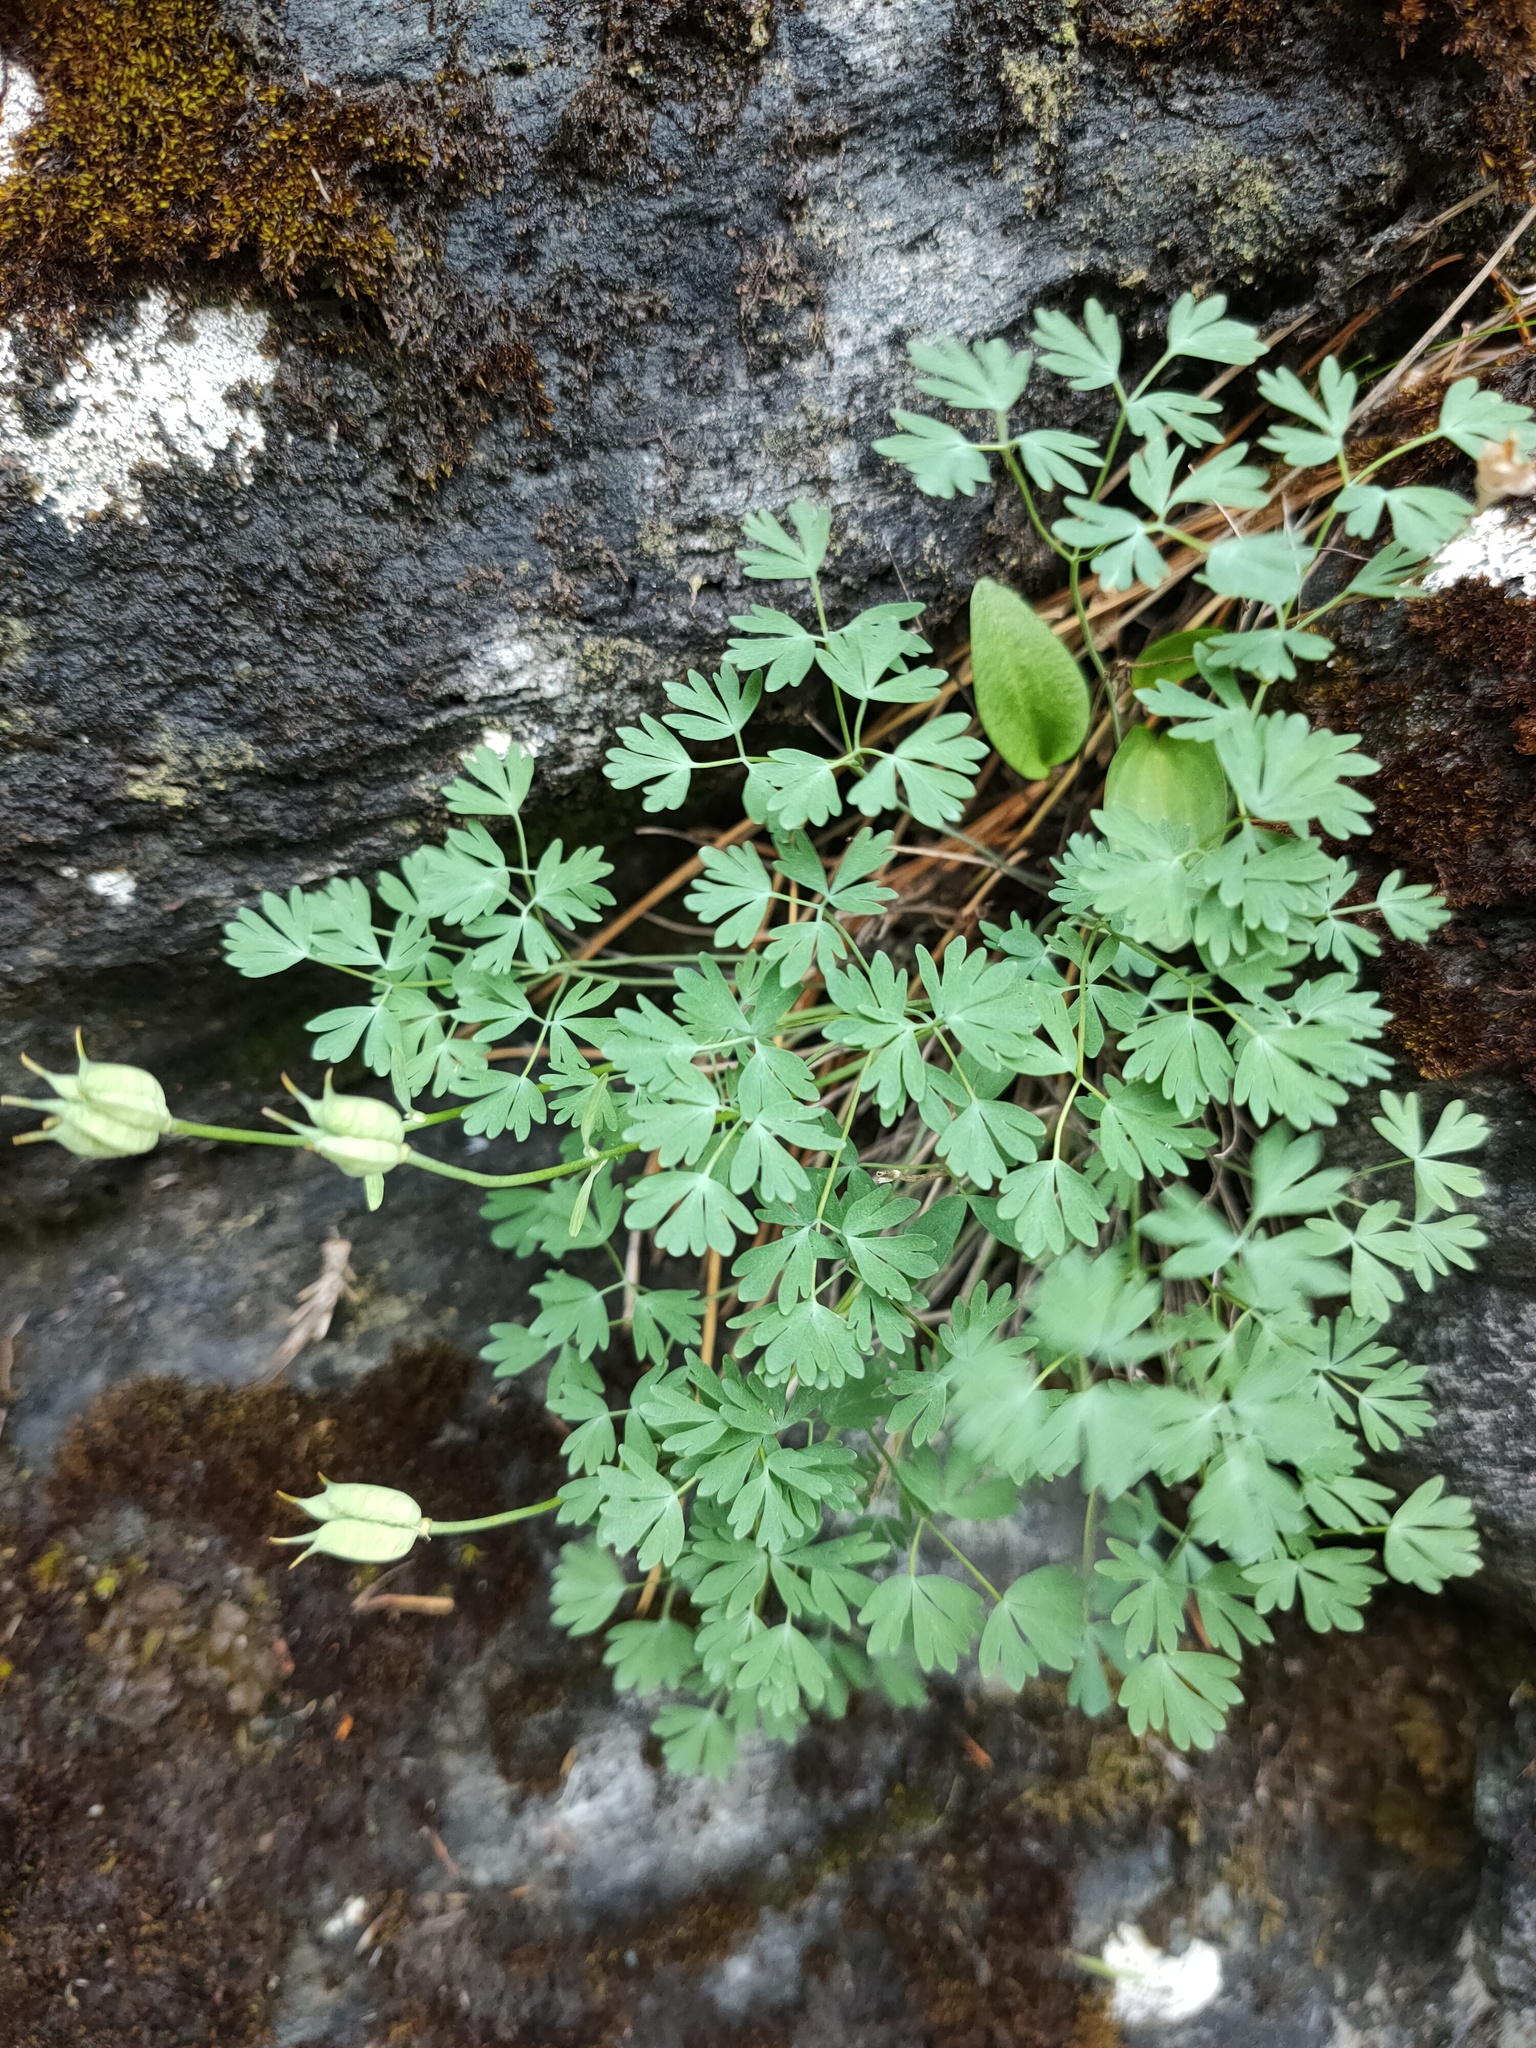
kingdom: Plantae
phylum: Tracheophyta
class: Magnoliopsida
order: Ranunculales
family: Ranunculaceae
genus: Paraquilegia
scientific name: Paraquilegia microphylla
